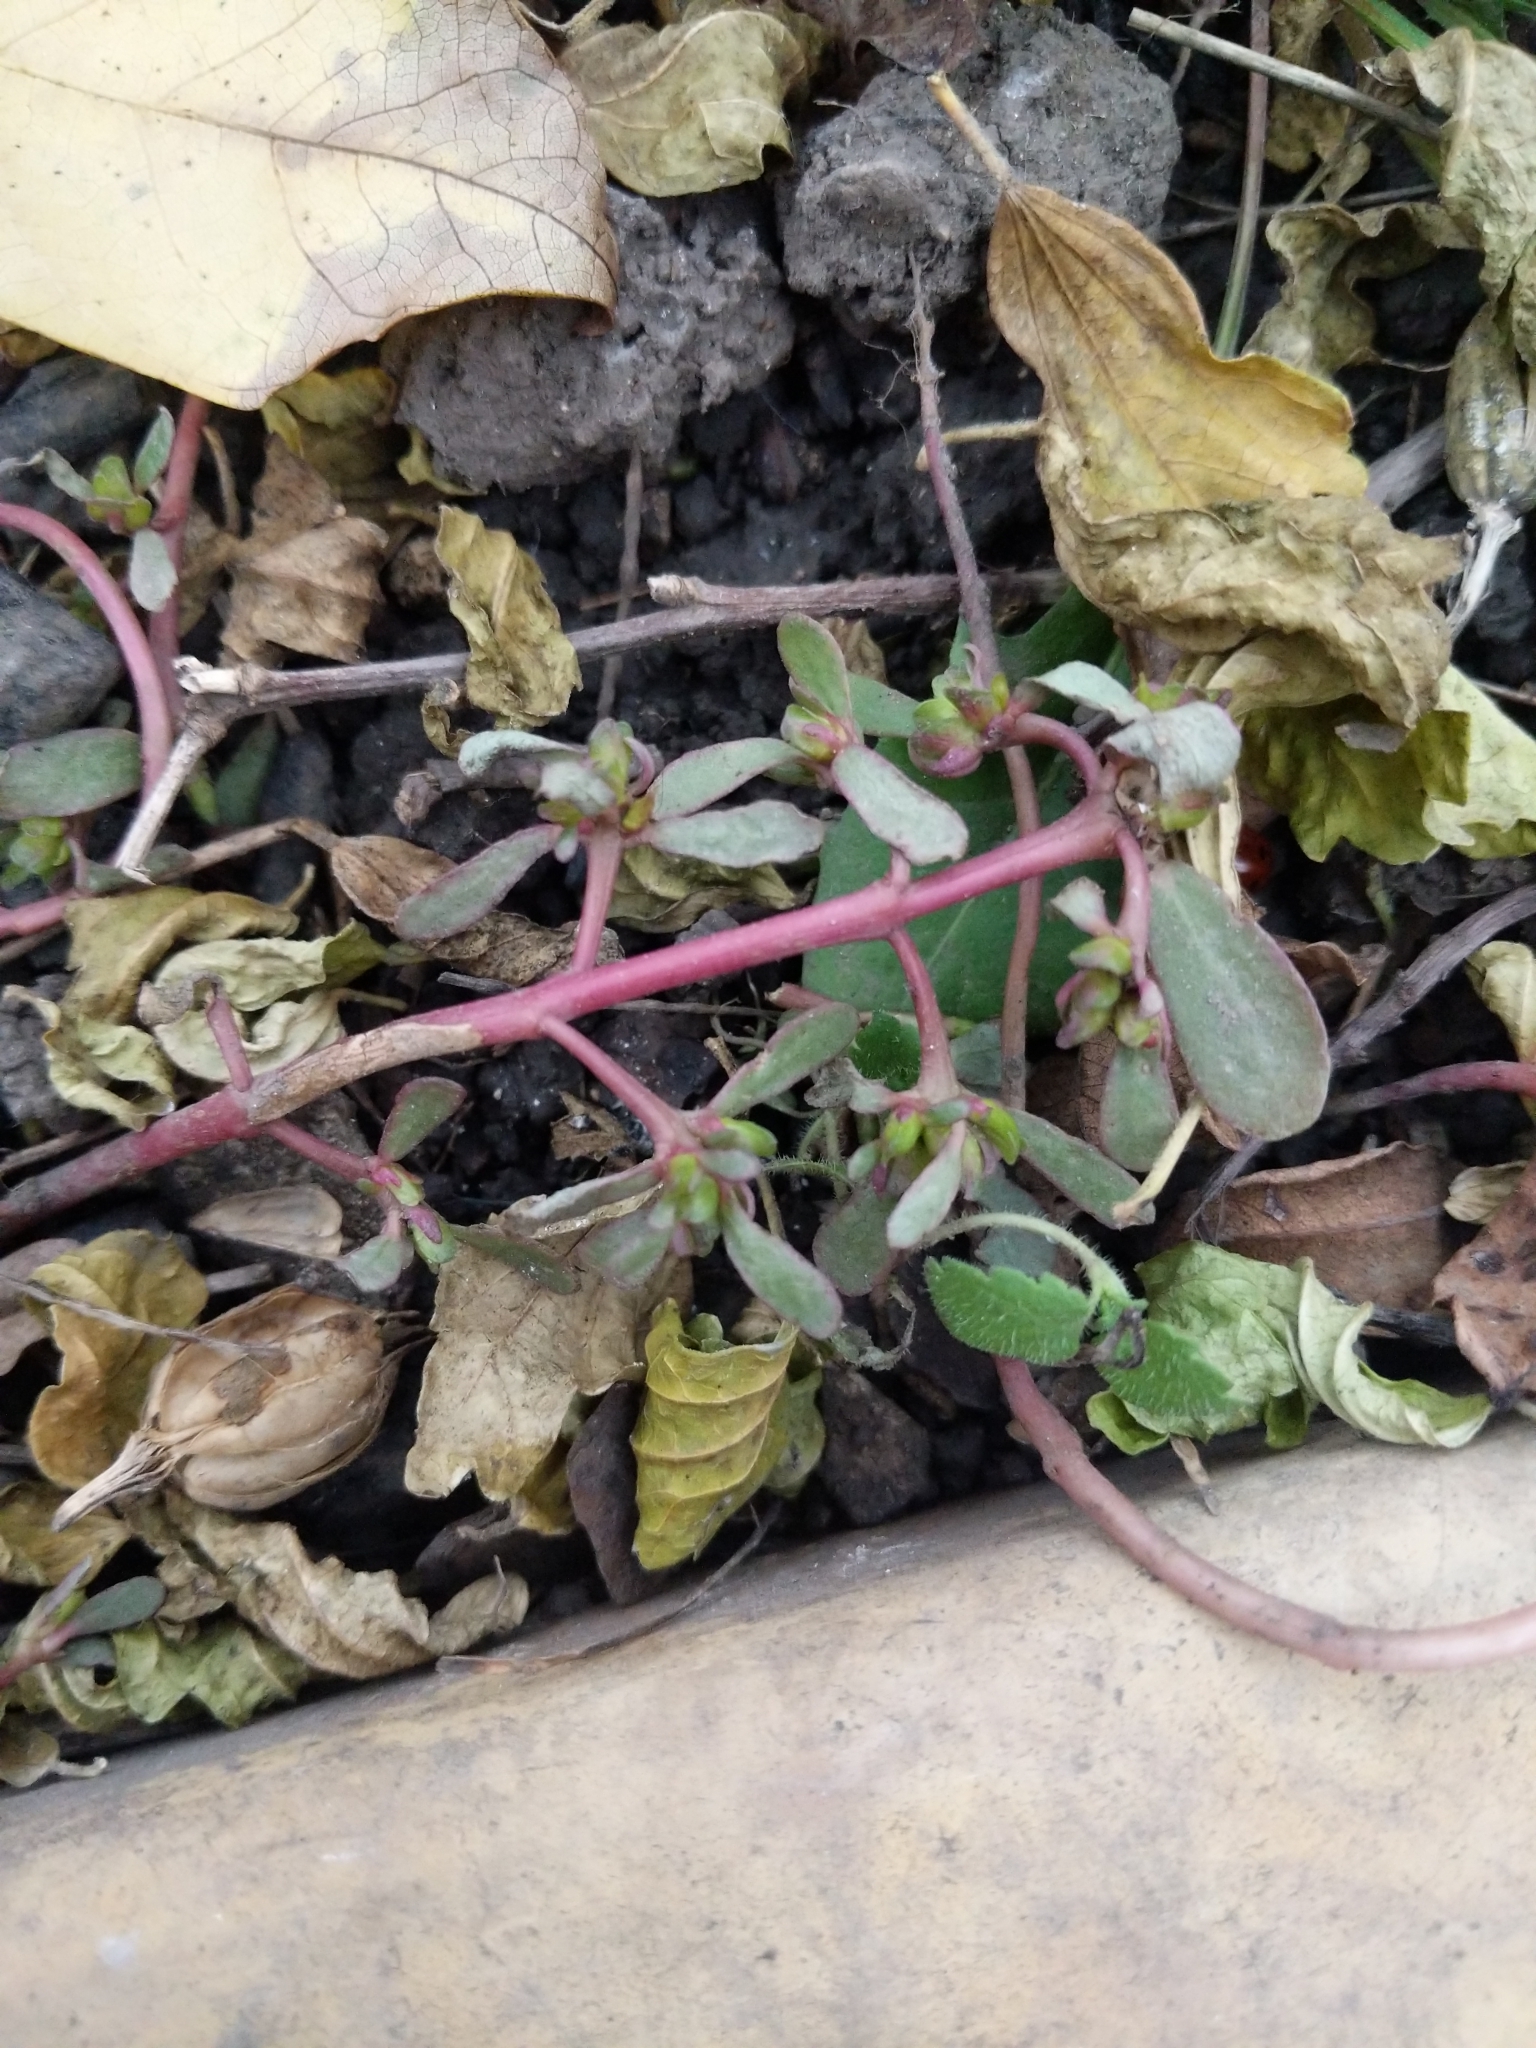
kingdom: Plantae
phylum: Tracheophyta
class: Magnoliopsida
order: Caryophyllales
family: Portulacaceae
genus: Portulaca
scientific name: Portulaca oleracea
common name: Common purslane
